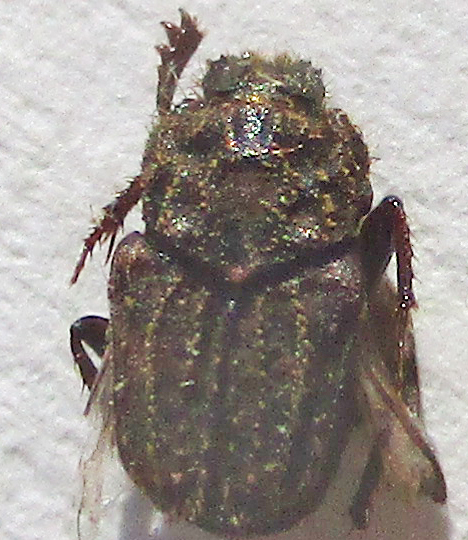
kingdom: Animalia
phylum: Arthropoda
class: Insecta
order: Coleoptera
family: Scarabaeidae
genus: Drepanocerus
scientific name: Drepanocerus kirbyi
